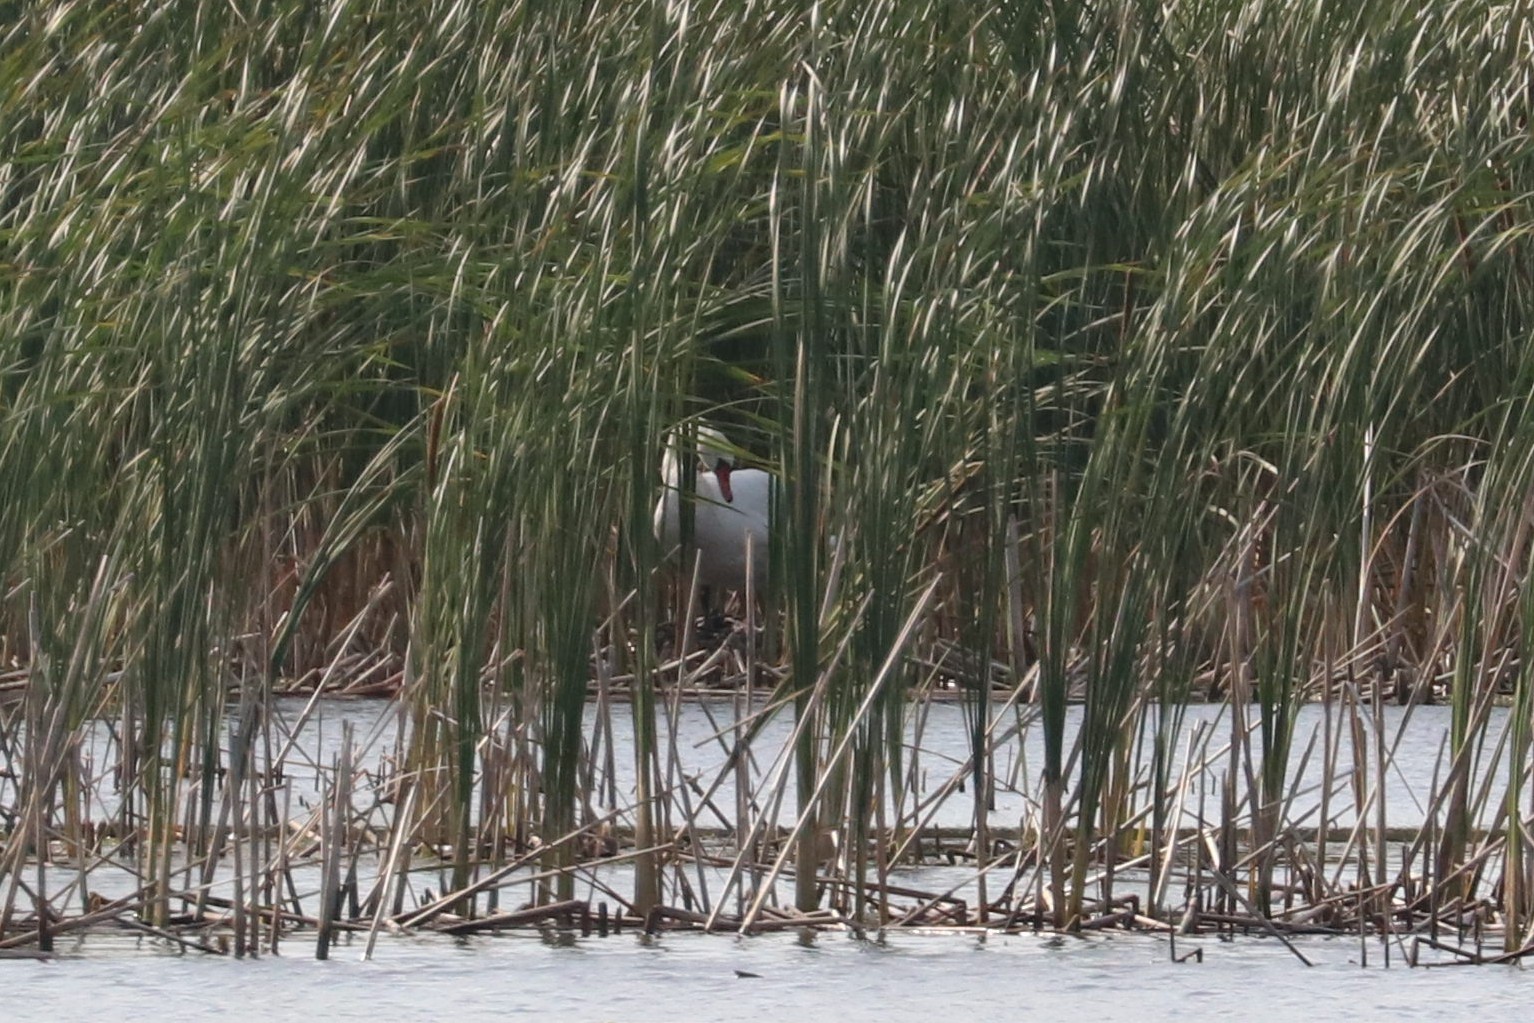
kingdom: Animalia
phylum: Chordata
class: Aves
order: Anseriformes
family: Anatidae
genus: Cygnus
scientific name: Cygnus olor
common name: Mute swan
